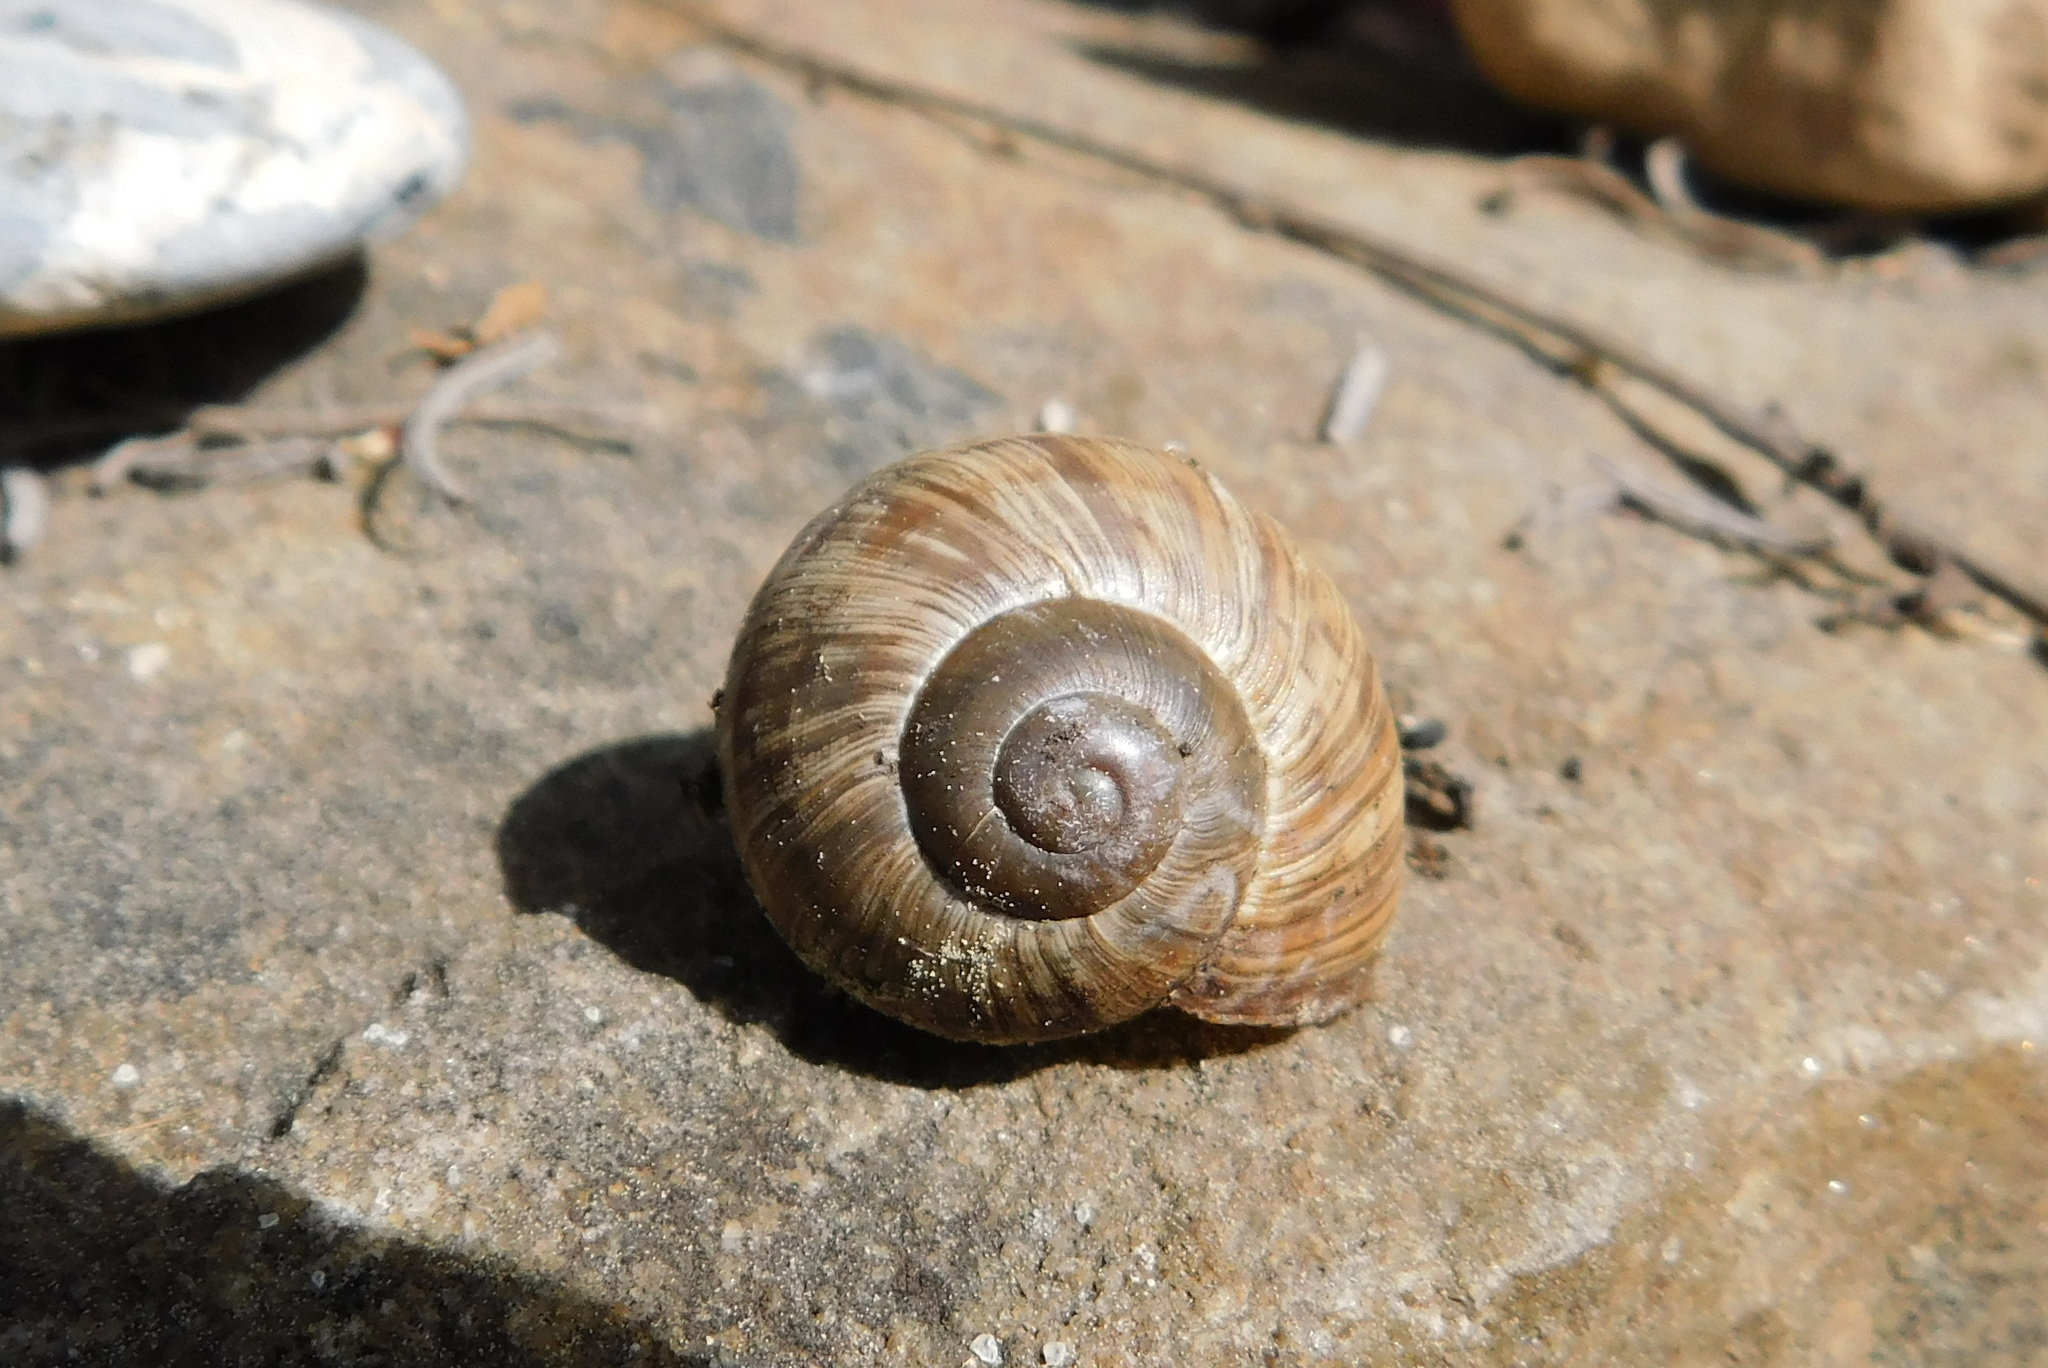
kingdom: Animalia
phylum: Mollusca
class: Gastropoda
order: Stylommatophora
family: Helicidae
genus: Helix
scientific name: Helix pomatia
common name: Roman snail
